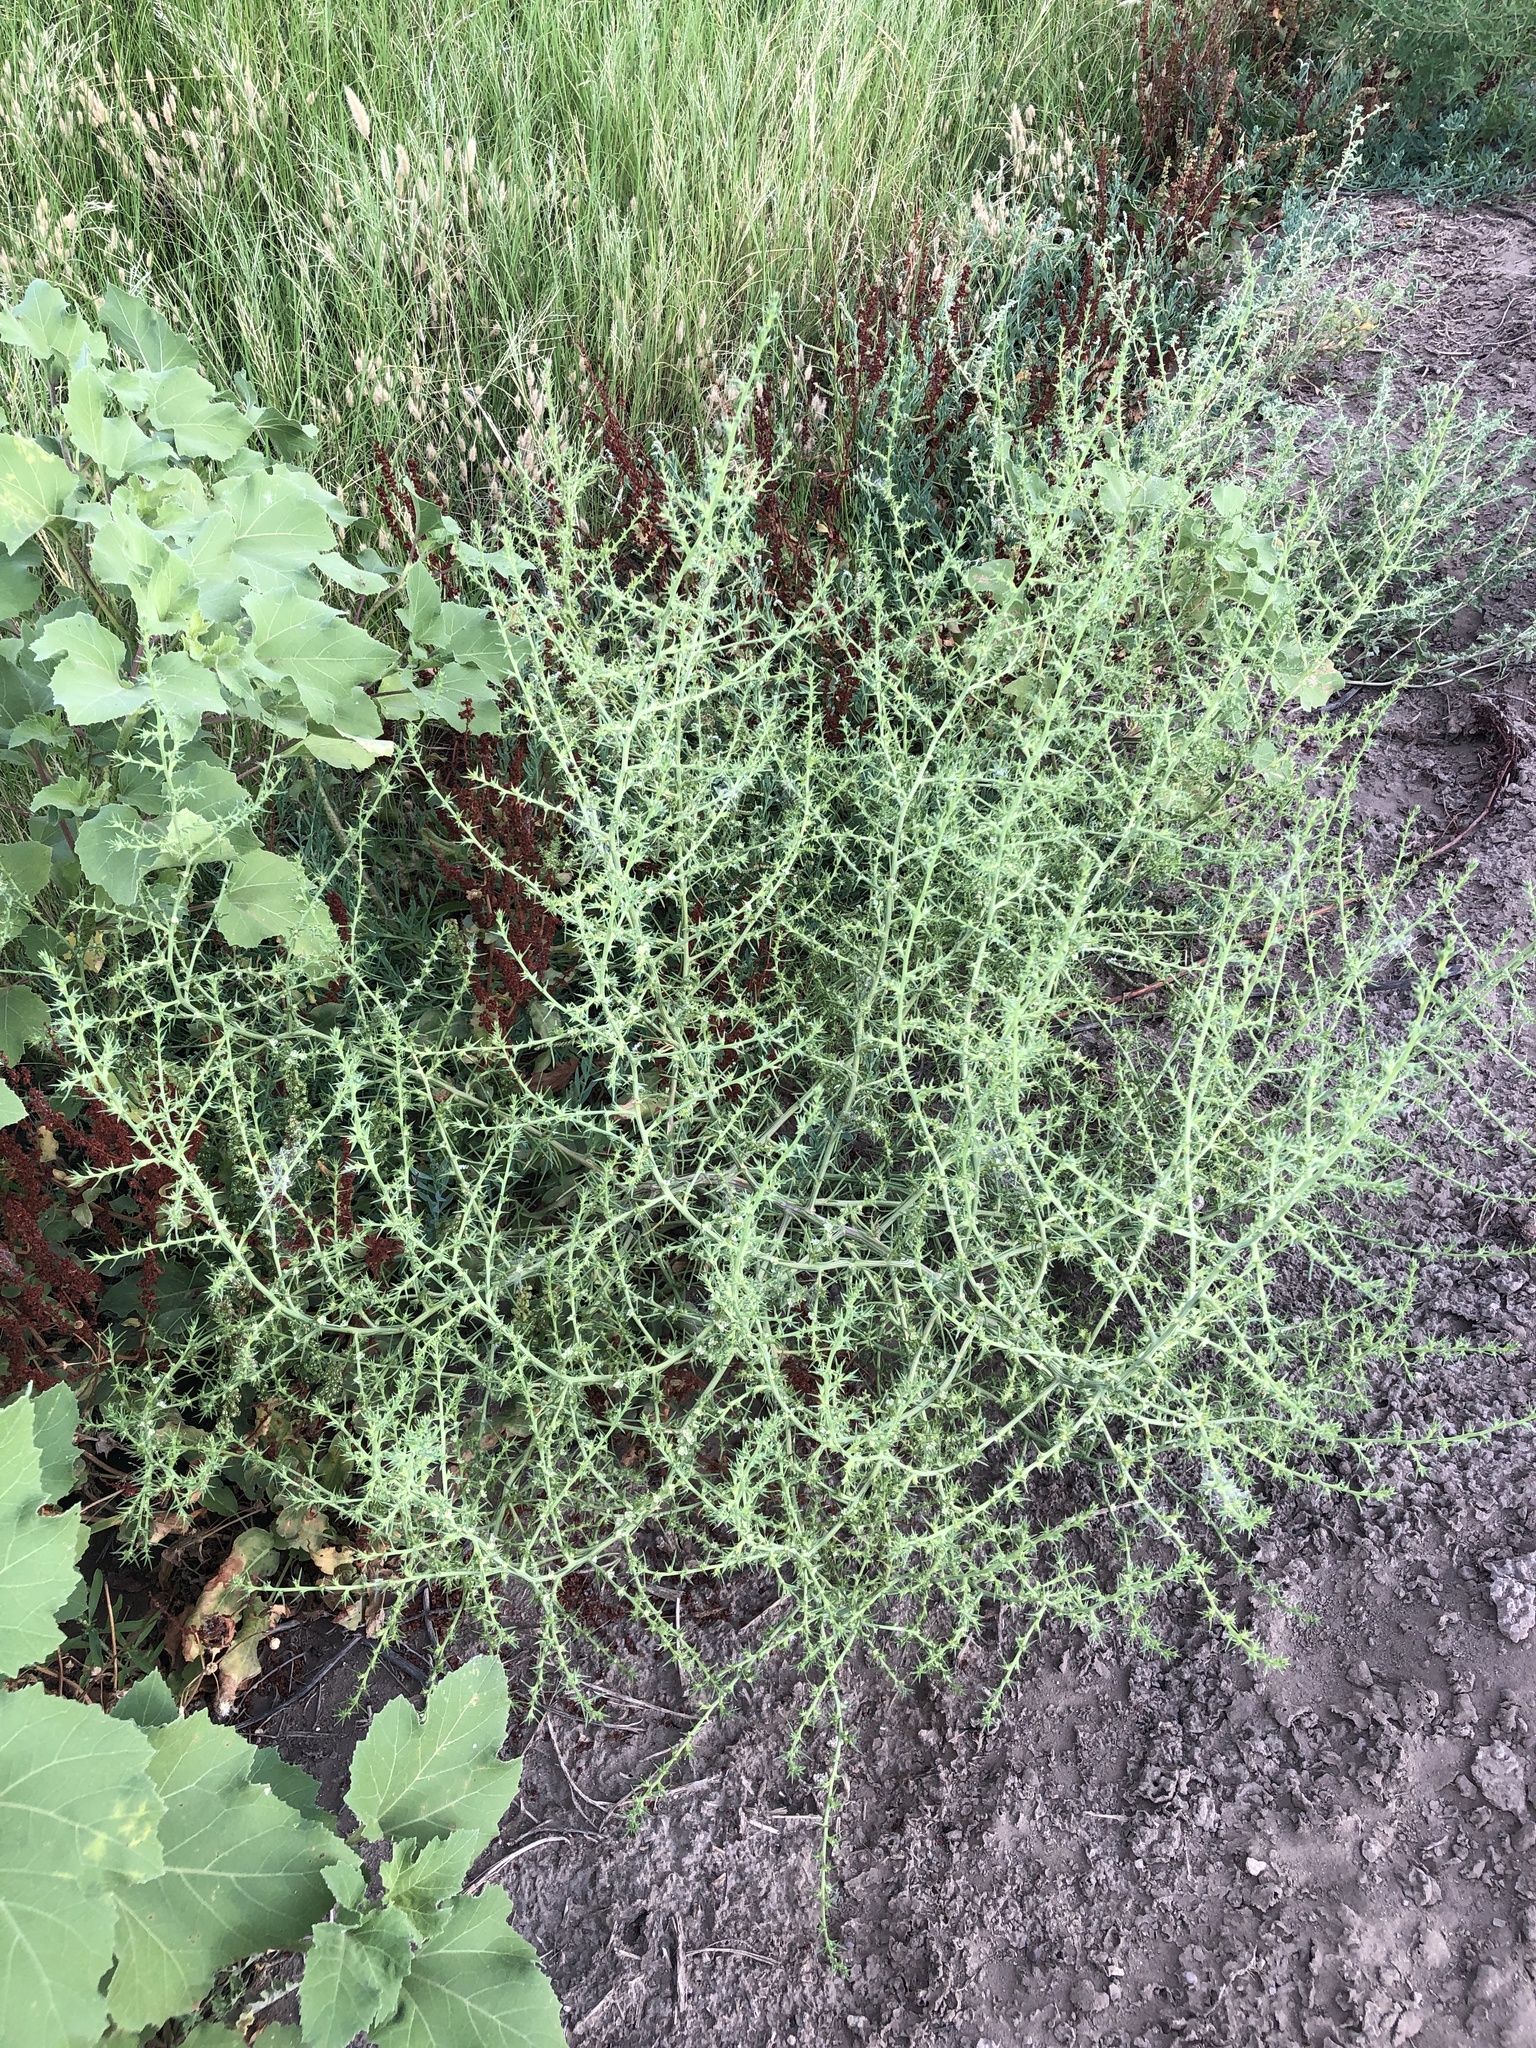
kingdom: Plantae
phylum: Tracheophyta
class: Magnoliopsida
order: Caryophyllales
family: Amaranthaceae
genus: Salsola
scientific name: Salsola tragus
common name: Prickly russian thistle
